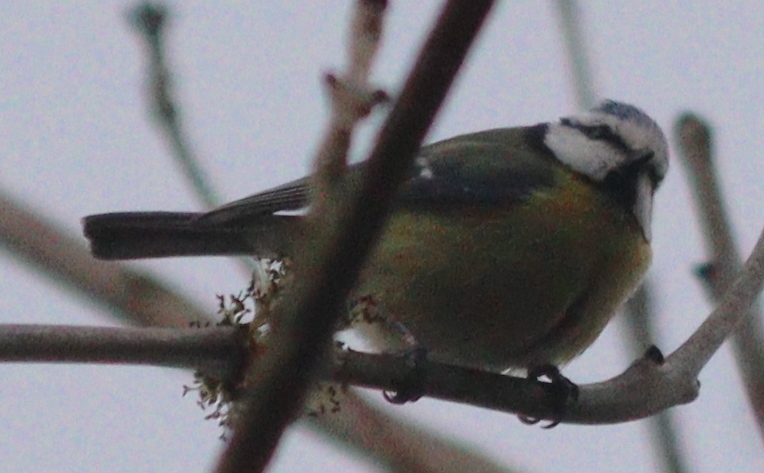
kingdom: Animalia
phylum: Chordata
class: Aves
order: Passeriformes
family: Paridae
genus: Cyanistes
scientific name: Cyanistes caeruleus
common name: Eurasian blue tit
